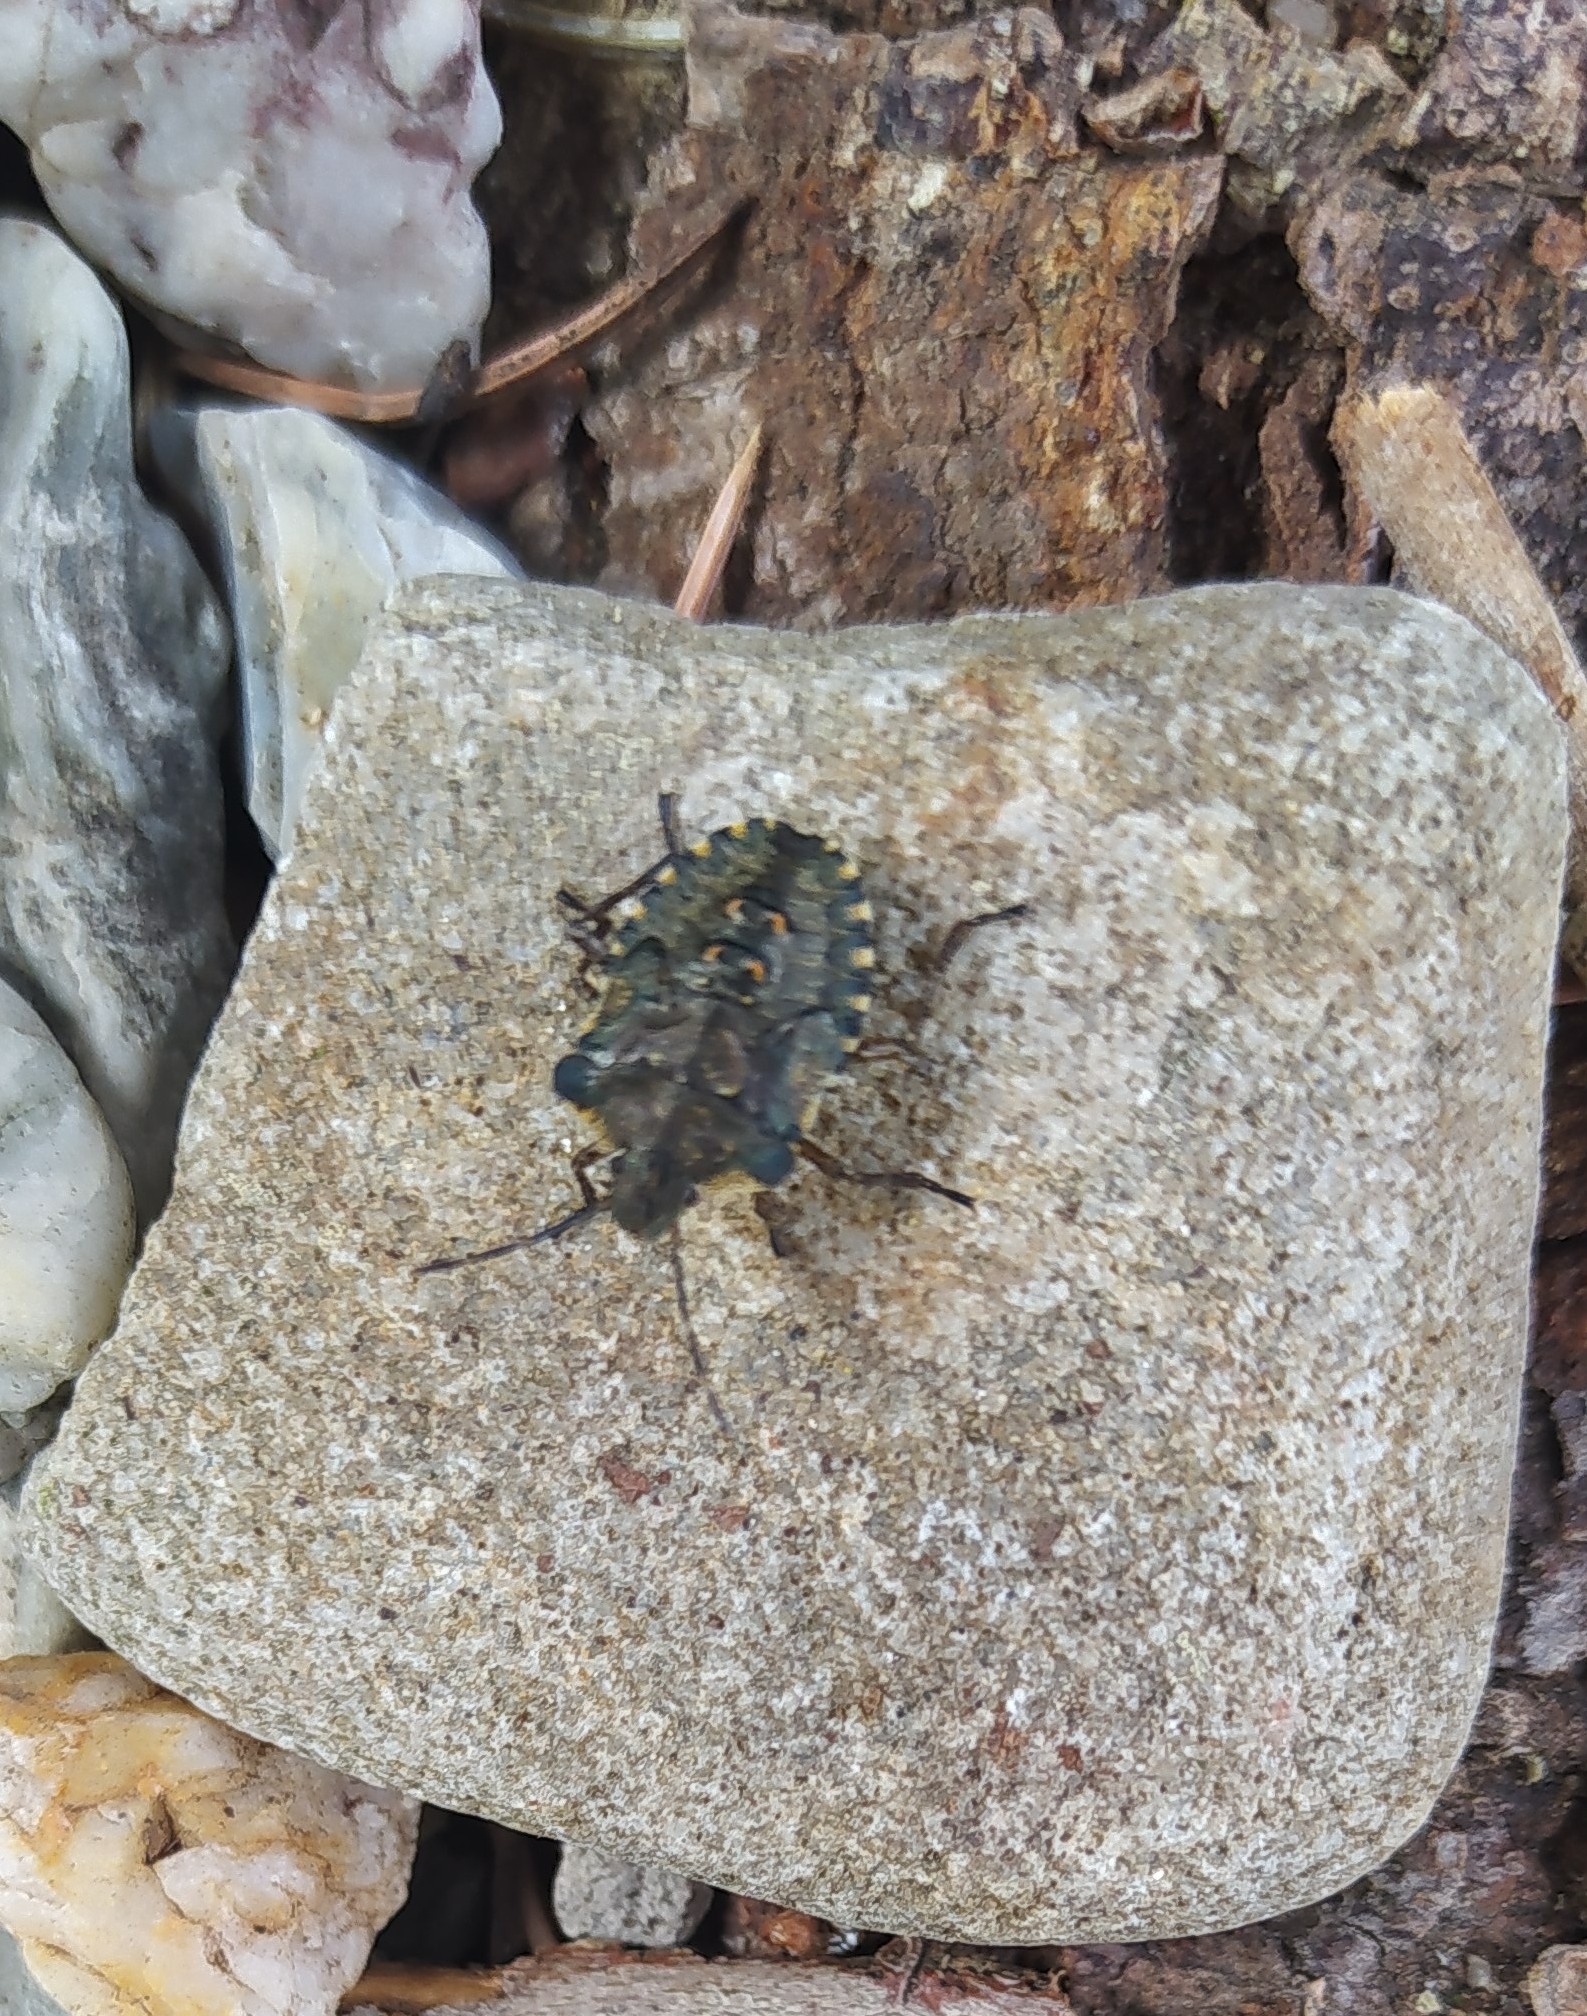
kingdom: Animalia
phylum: Arthropoda
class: Insecta
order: Hemiptera
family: Pentatomidae
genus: Pentatoma
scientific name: Pentatoma rufipes
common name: Forest bug
